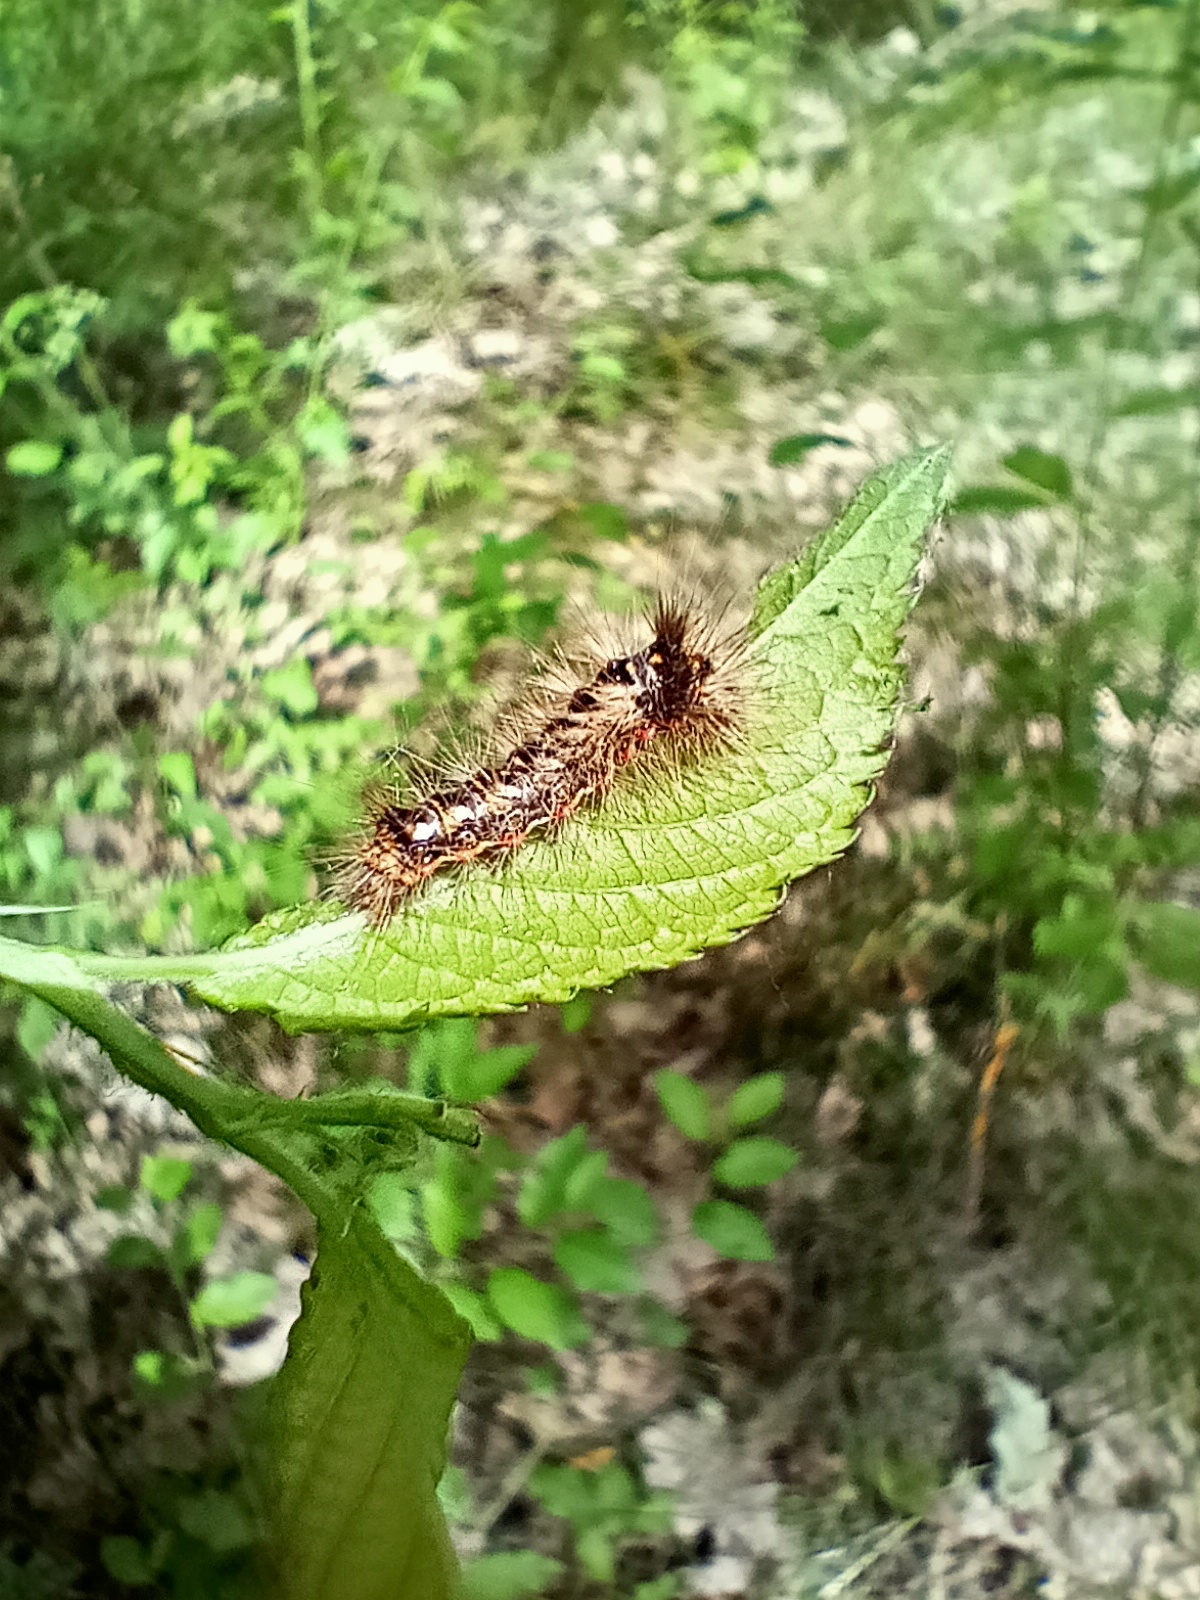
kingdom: Animalia
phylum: Arthropoda
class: Insecta
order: Lepidoptera
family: Noctuidae
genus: Acronicta
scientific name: Acronicta rumicis
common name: Knot grass
